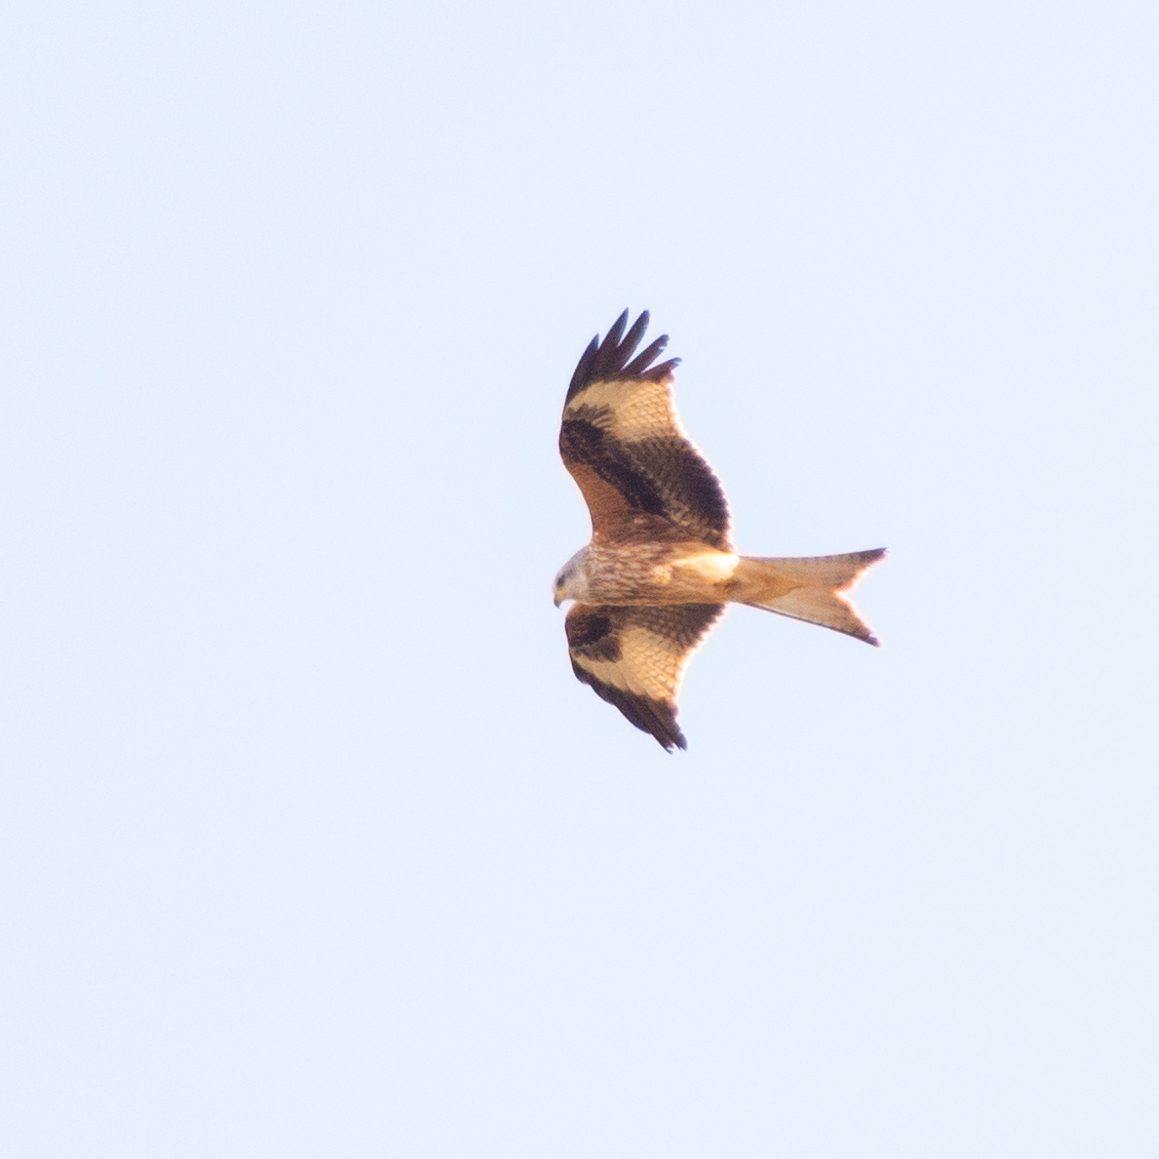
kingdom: Animalia
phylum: Chordata
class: Aves
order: Accipitriformes
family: Accipitridae
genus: Milvus
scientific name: Milvus milvus
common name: Red kite
